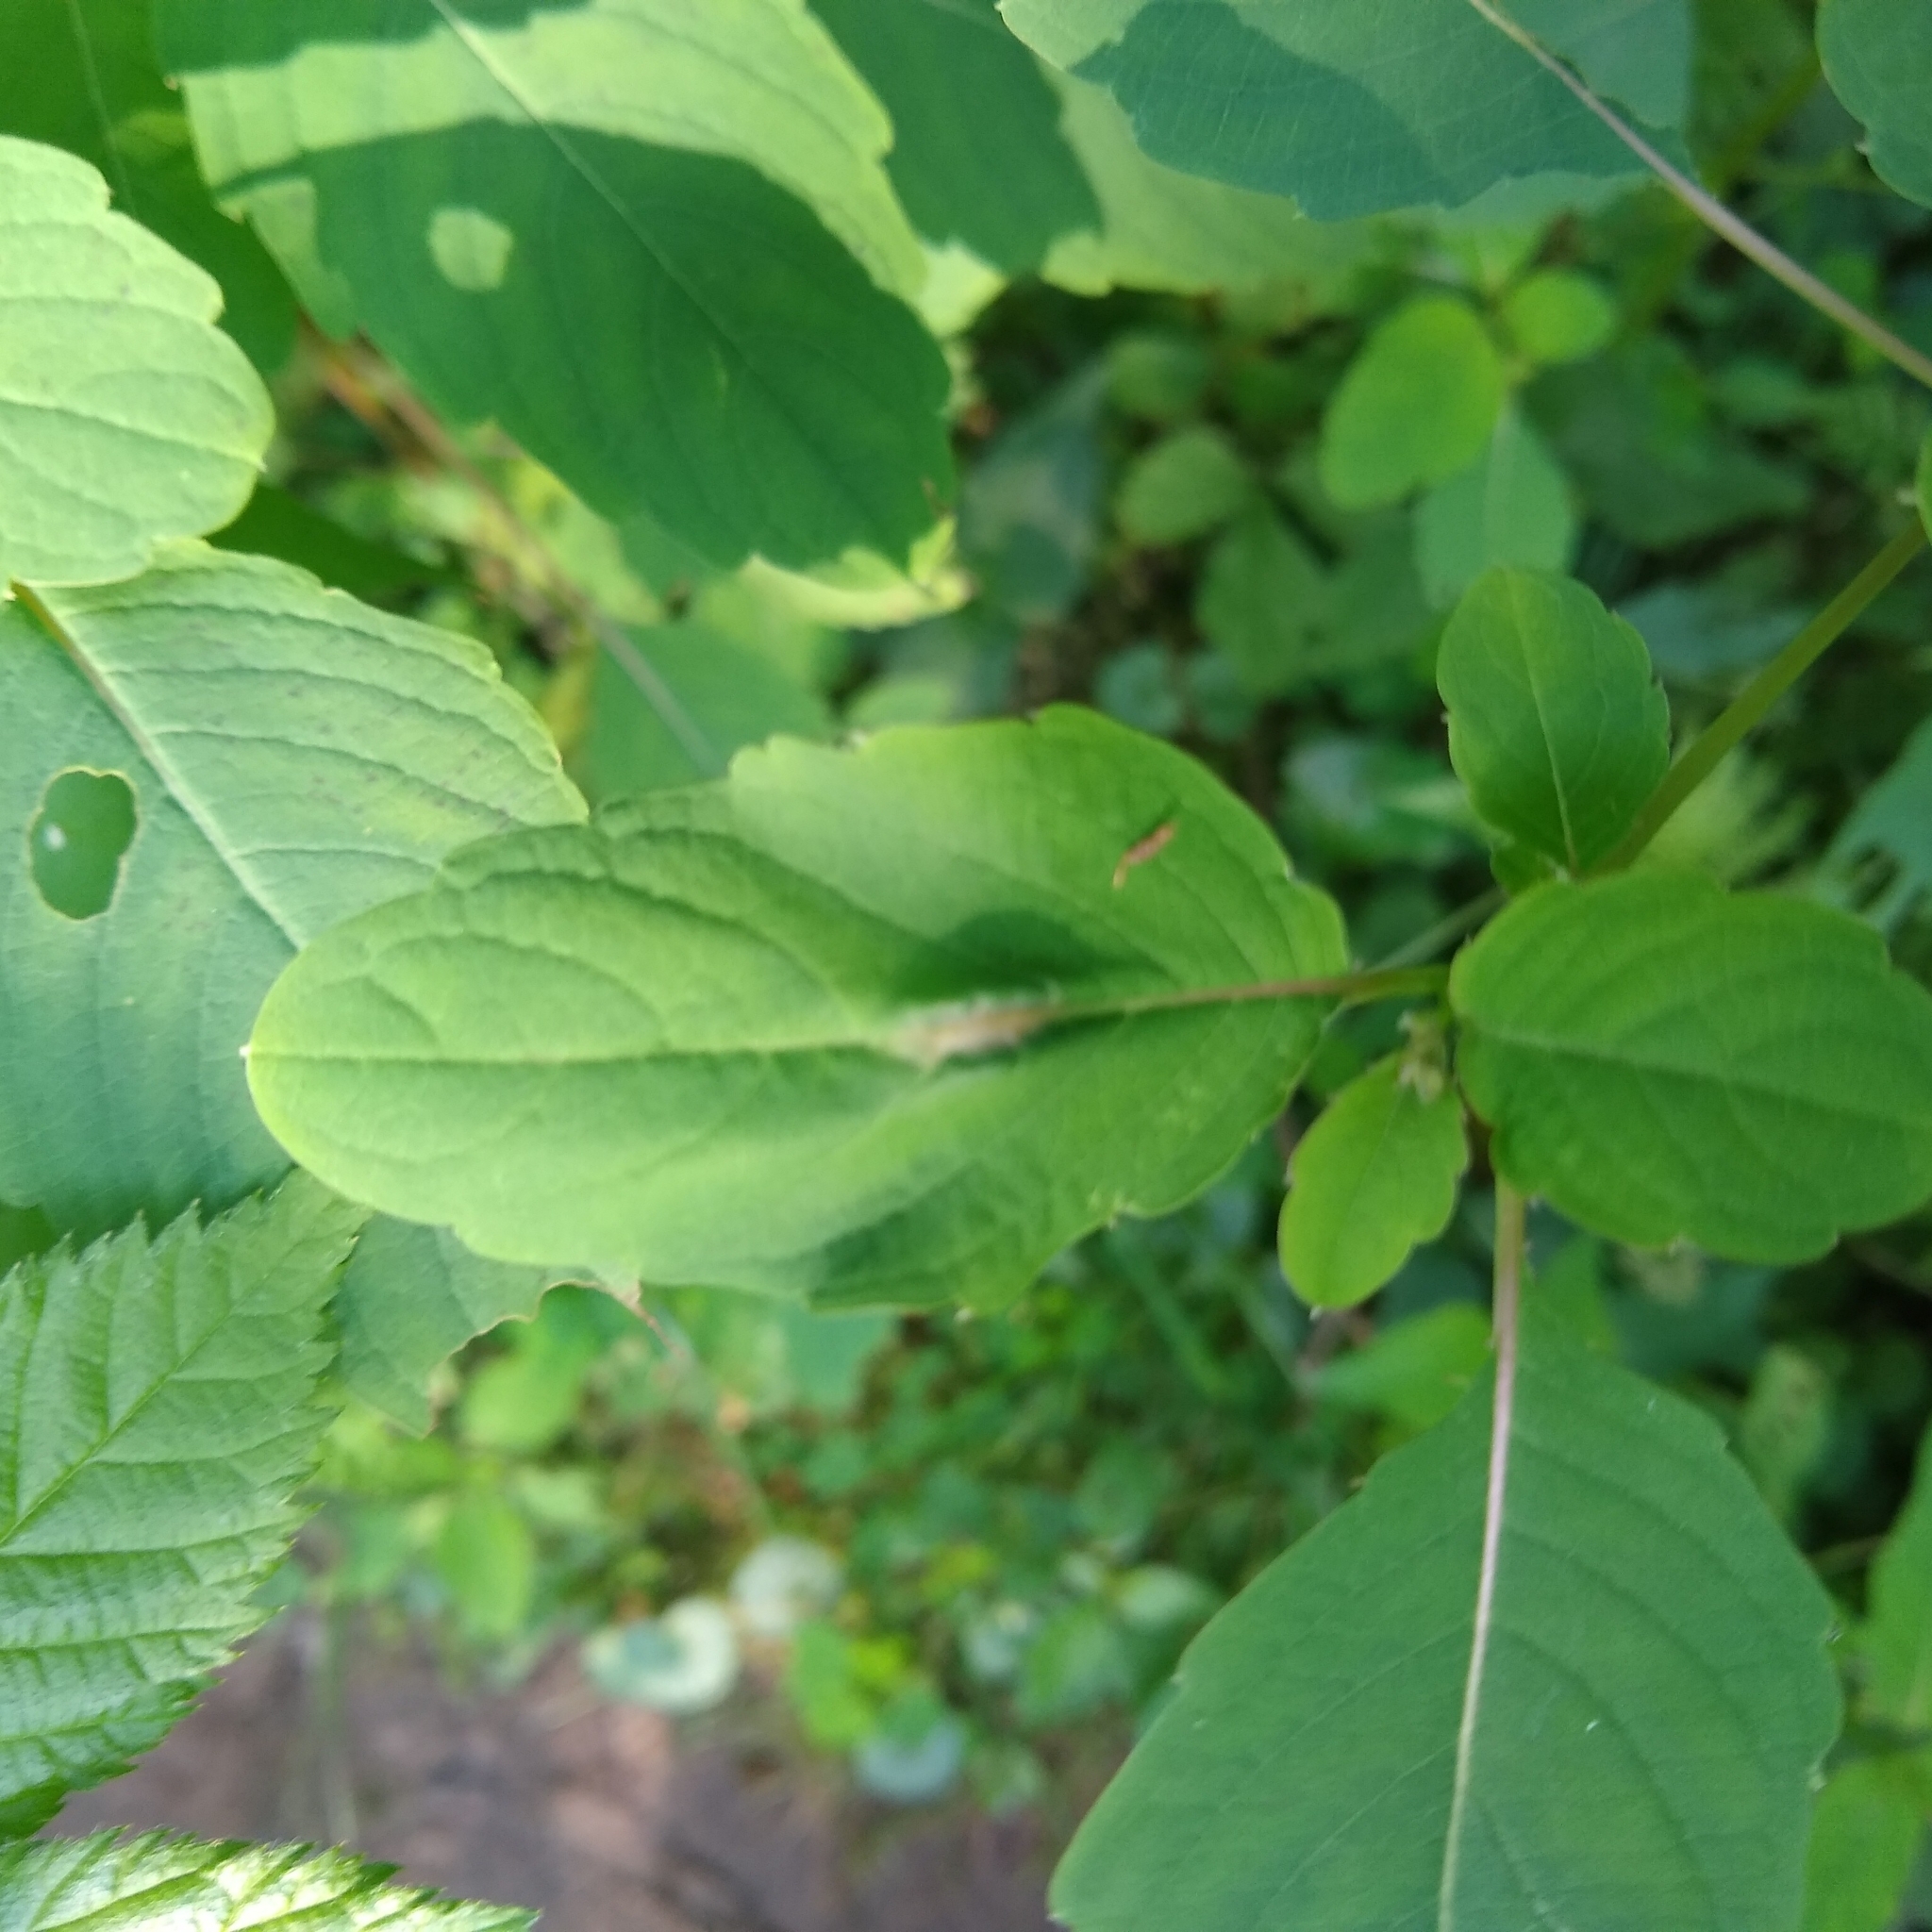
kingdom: Animalia
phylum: Arthropoda
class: Insecta
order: Diptera
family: Cecidomyiidae
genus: Neolasioptera
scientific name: Neolasioptera impatientifolia
